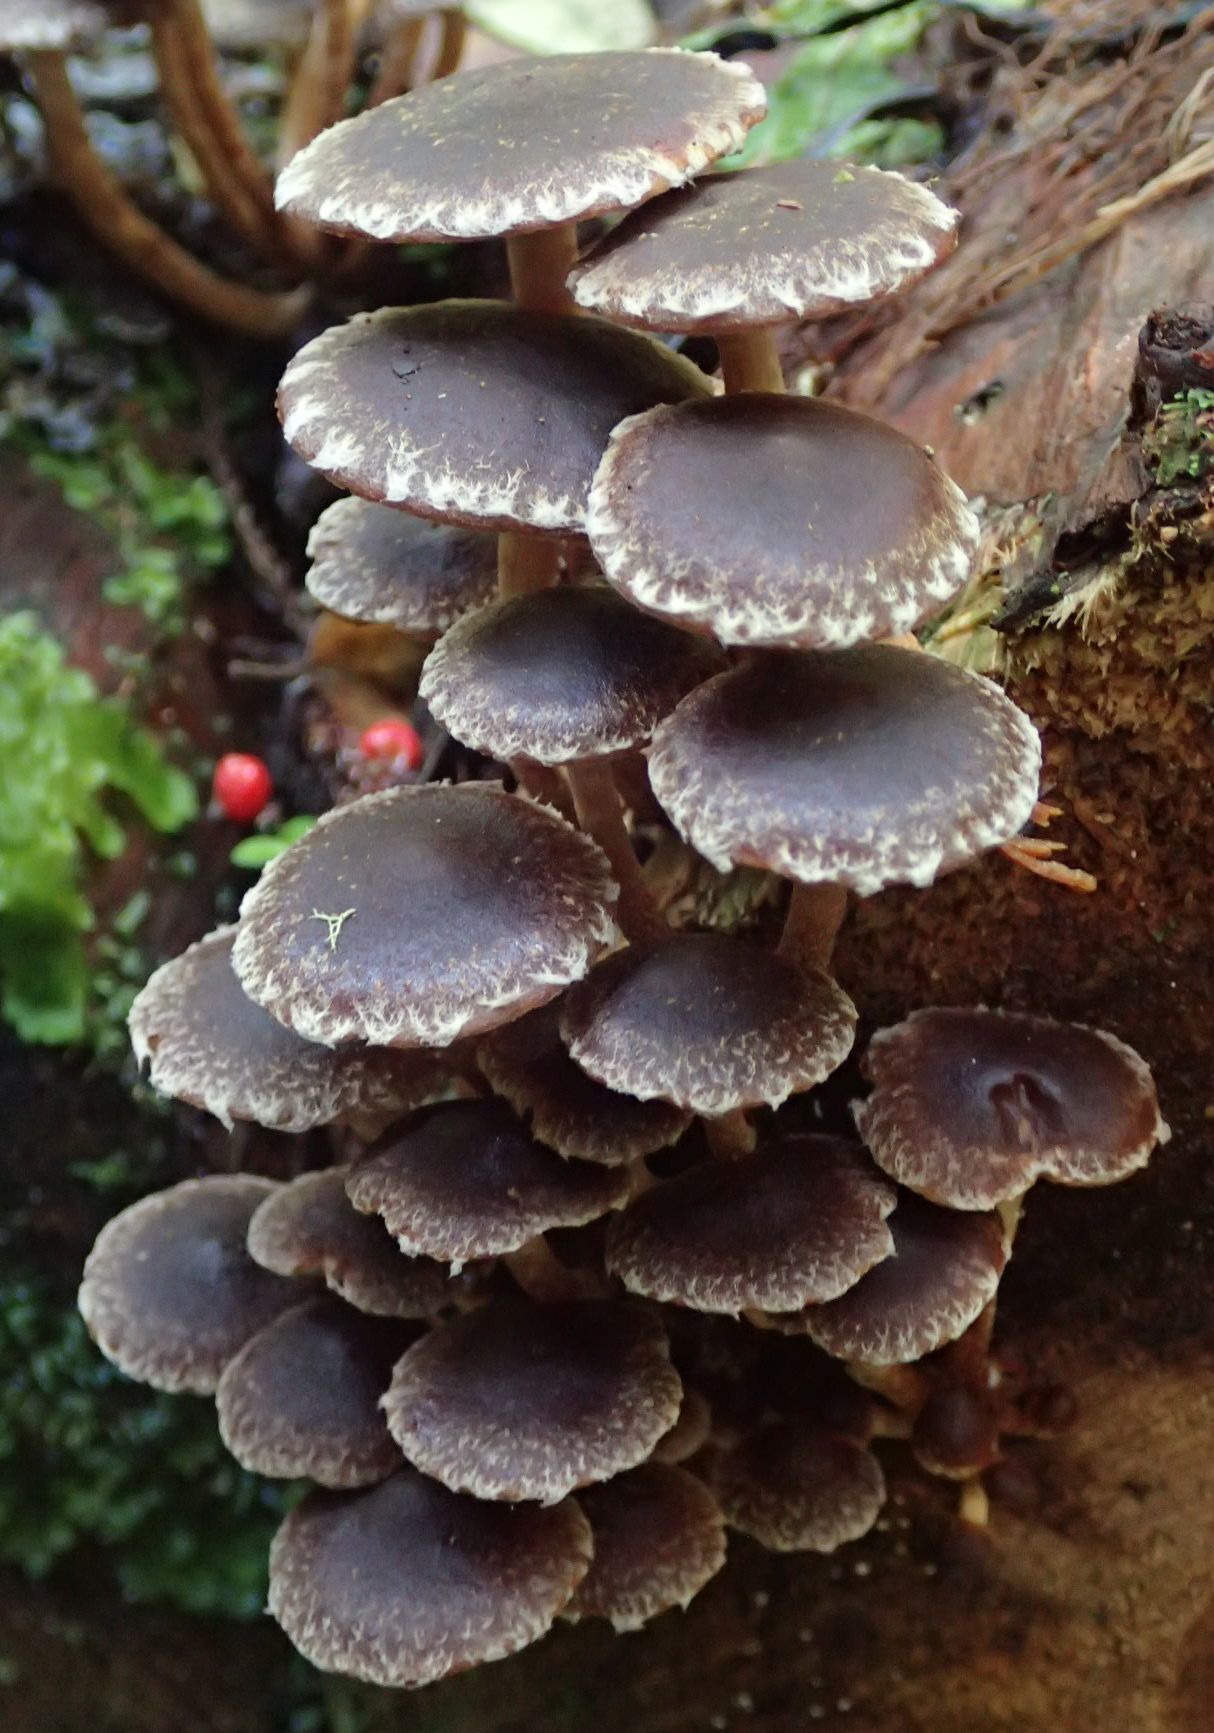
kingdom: Fungi
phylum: Basidiomycota
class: Agaricomycetes
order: Agaricales
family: Strophariaceae
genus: Hypholoma
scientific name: Hypholoma brunneum
